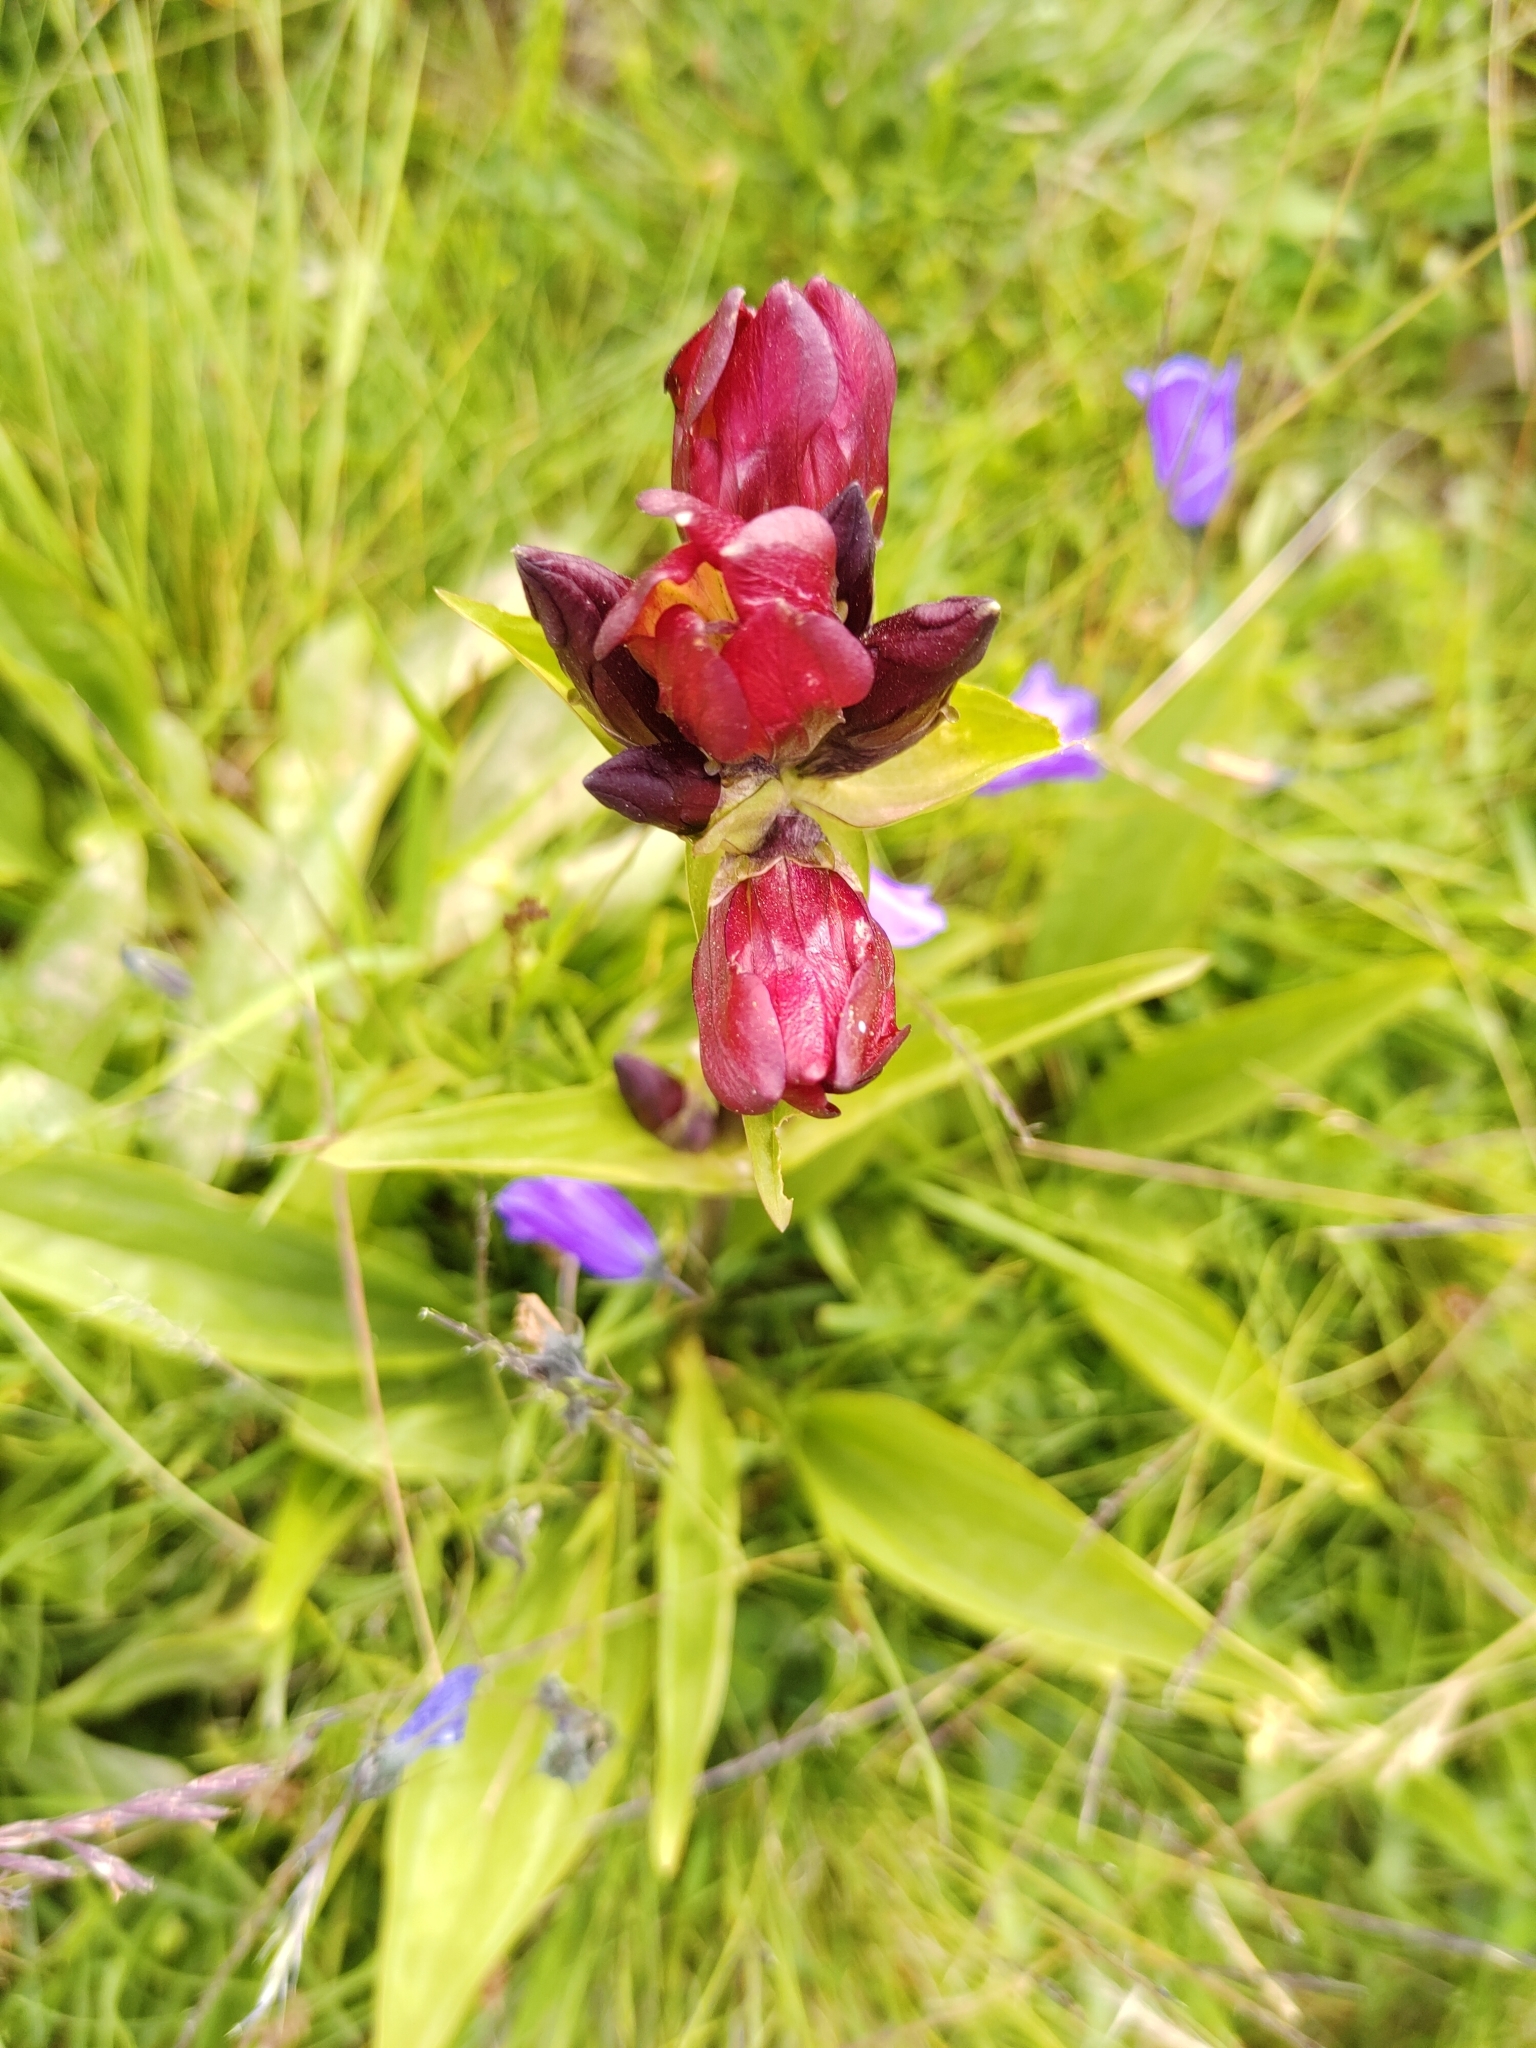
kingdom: Plantae
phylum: Tracheophyta
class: Magnoliopsida
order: Gentianales
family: Gentianaceae
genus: Gentiana
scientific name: Gentiana purpurea
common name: Purple gentian
